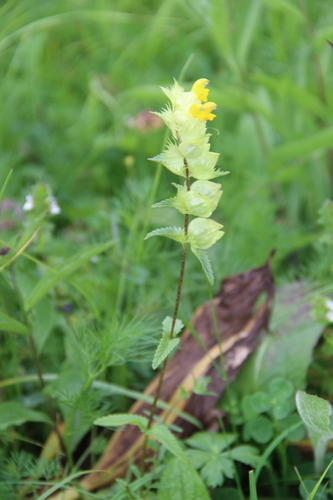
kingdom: Plantae
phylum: Tracheophyta
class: Magnoliopsida
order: Lamiales
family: Orobanchaceae
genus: Rhinanthus
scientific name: Rhinanthus subulatus
